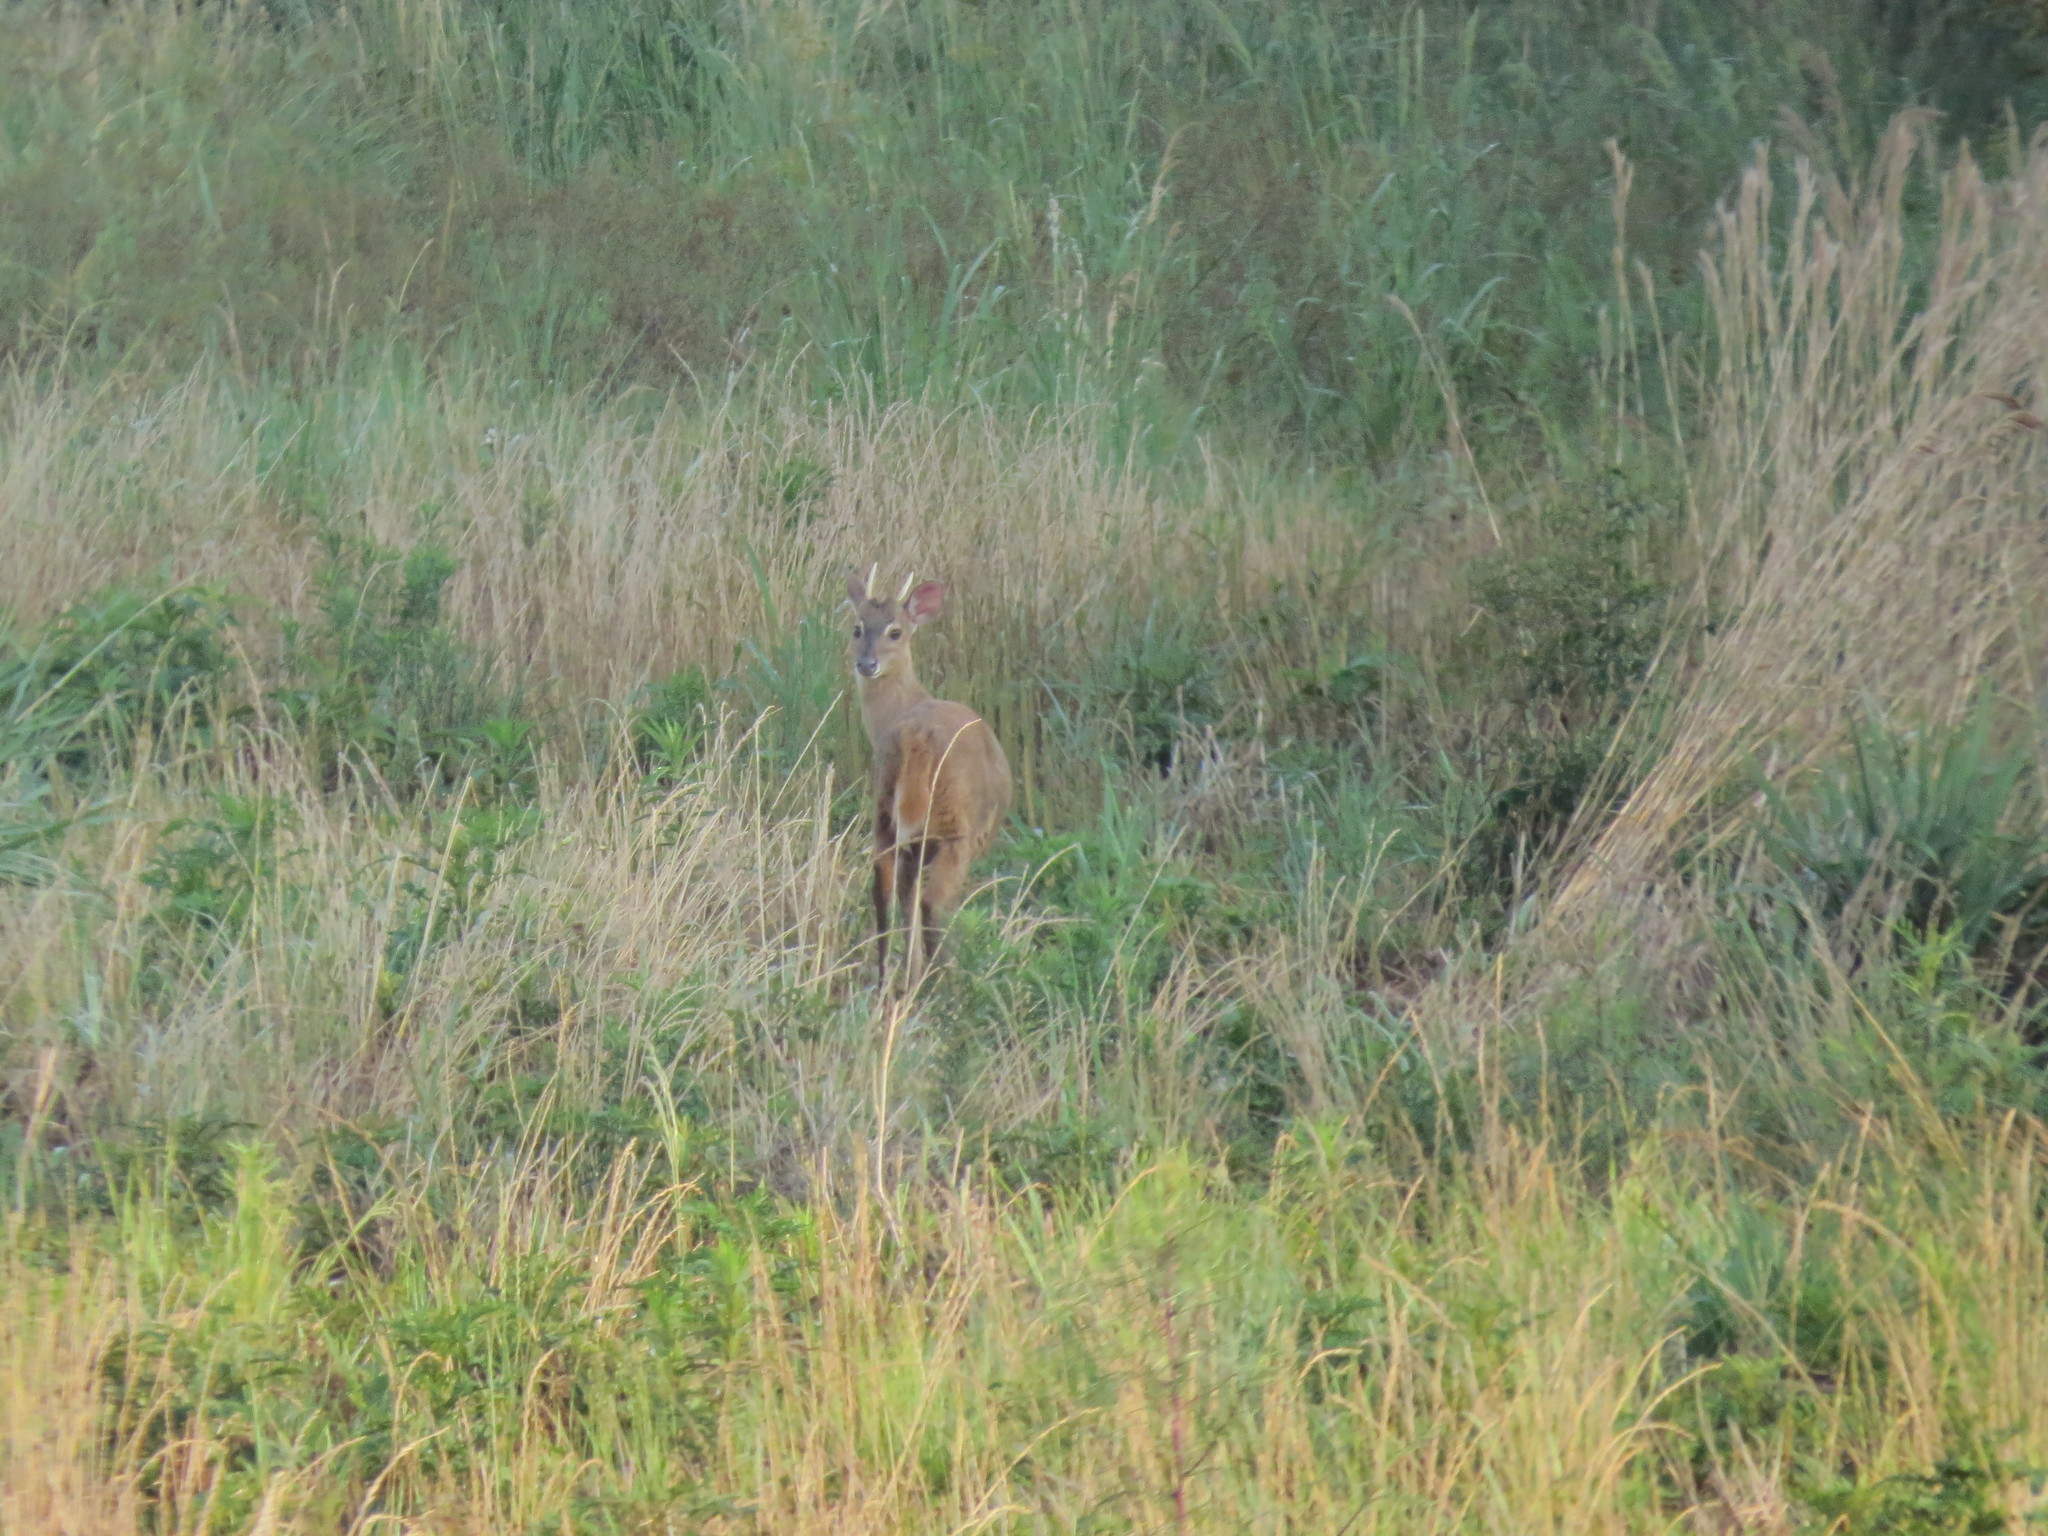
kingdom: Animalia
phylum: Chordata
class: Mammalia
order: Artiodactyla
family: Cervidae
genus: Mazama
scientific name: Mazama gouazoubira
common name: Gray brocket
